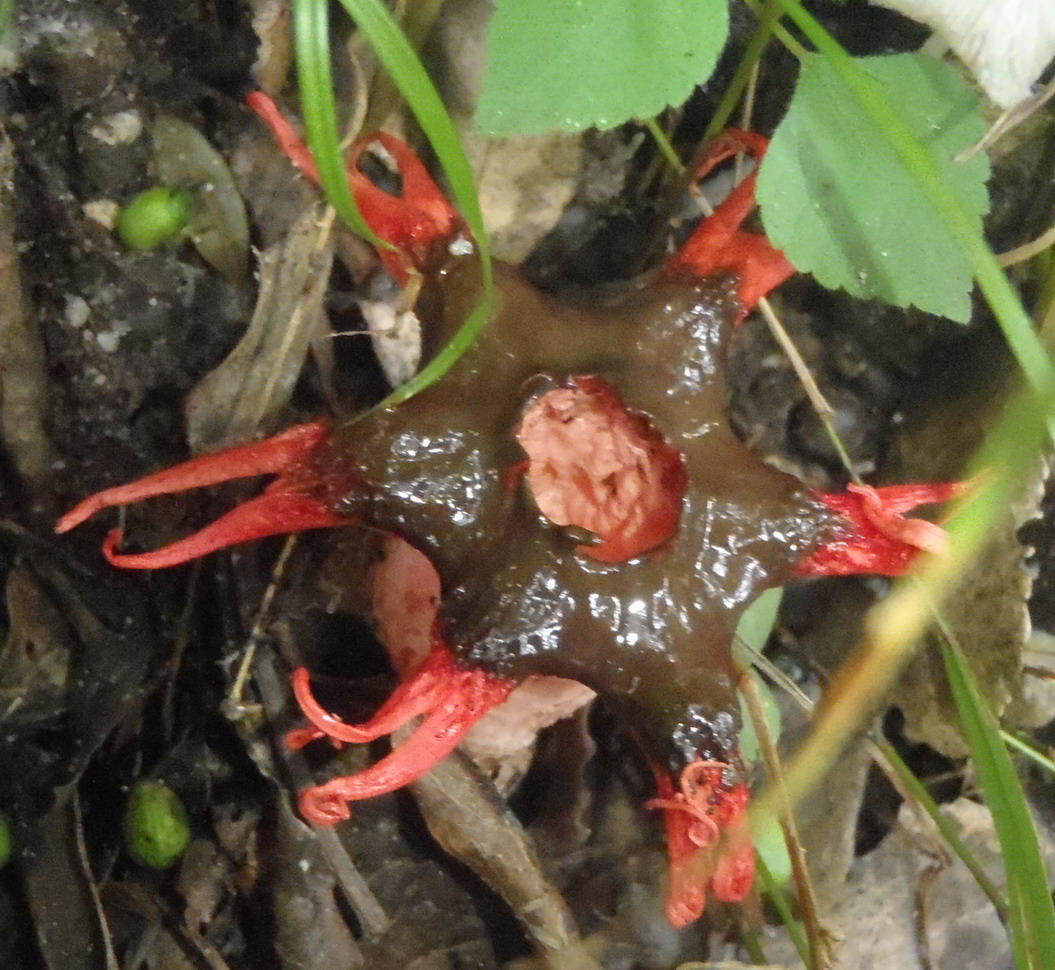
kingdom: Fungi
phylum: Basidiomycota
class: Agaricomycetes
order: Phallales
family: Phallaceae
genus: Aseroe
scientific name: Aseroe rubra
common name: Starfish fungus
